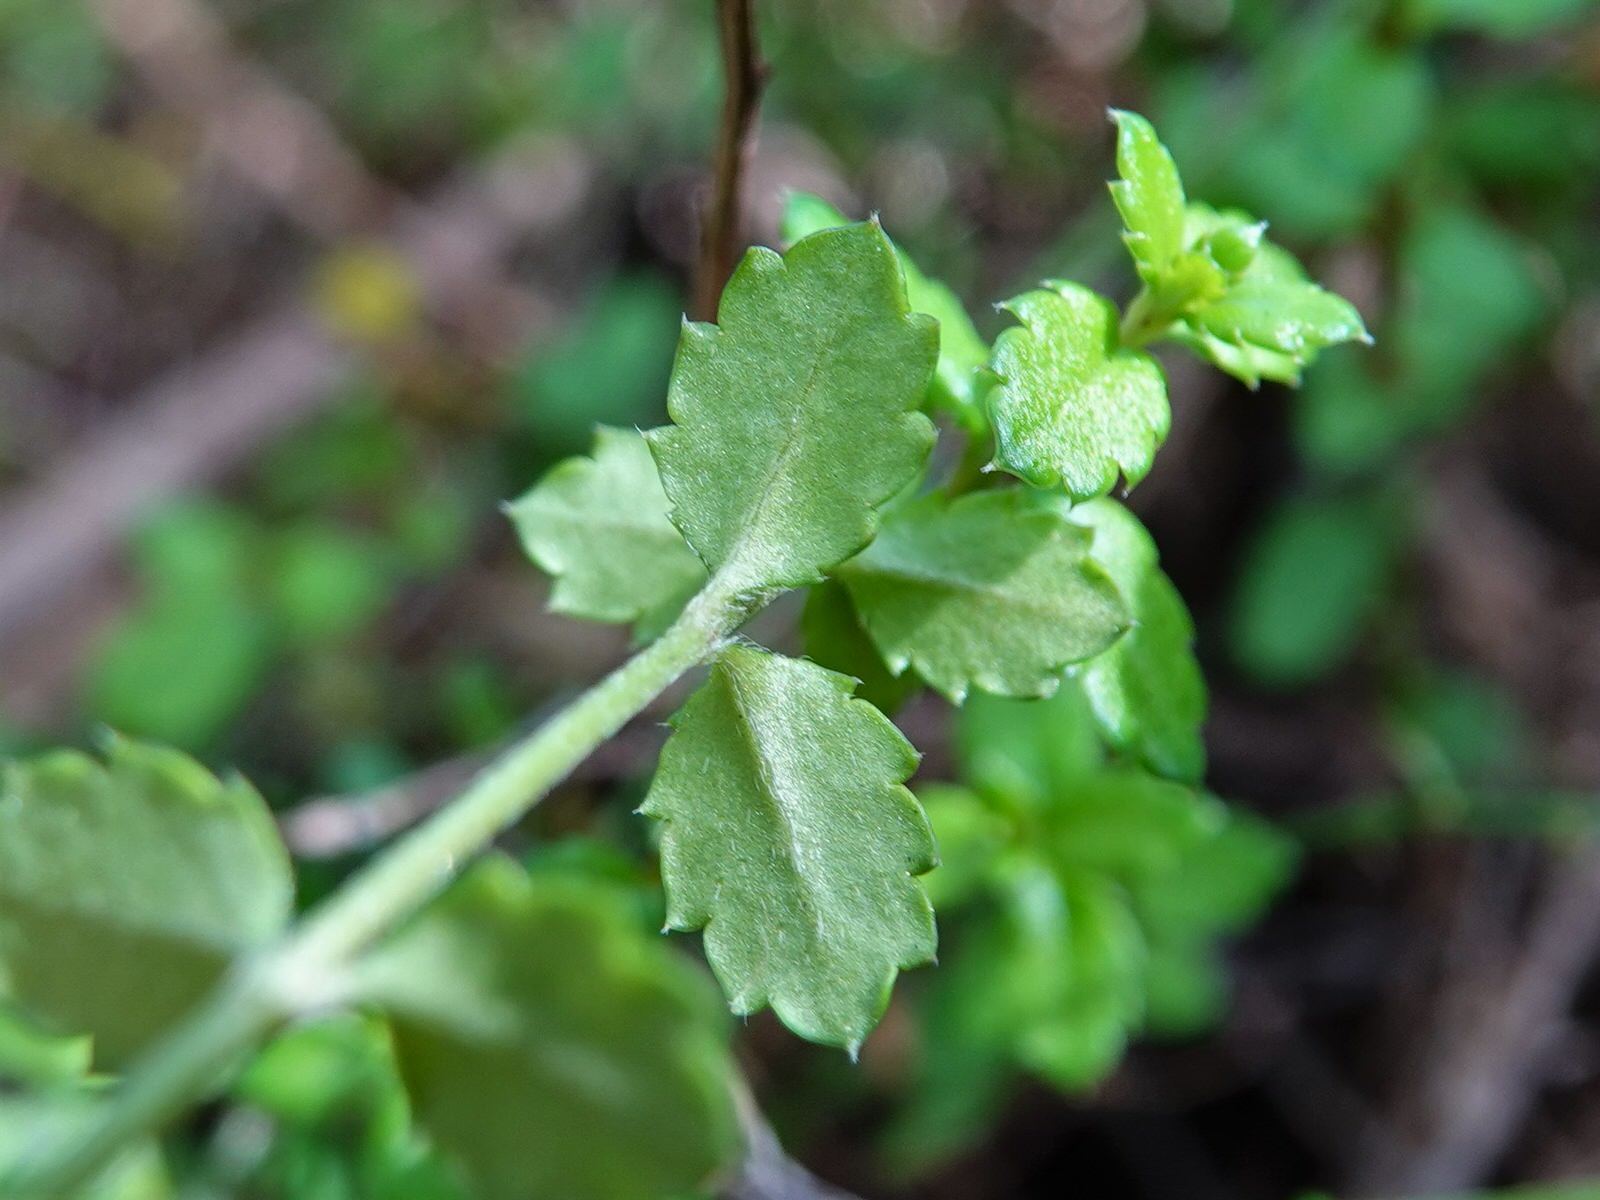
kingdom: Plantae
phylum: Tracheophyta
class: Magnoliopsida
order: Saxifragales
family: Haloragaceae
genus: Gonocarpus
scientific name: Gonocarpus aggregatus
